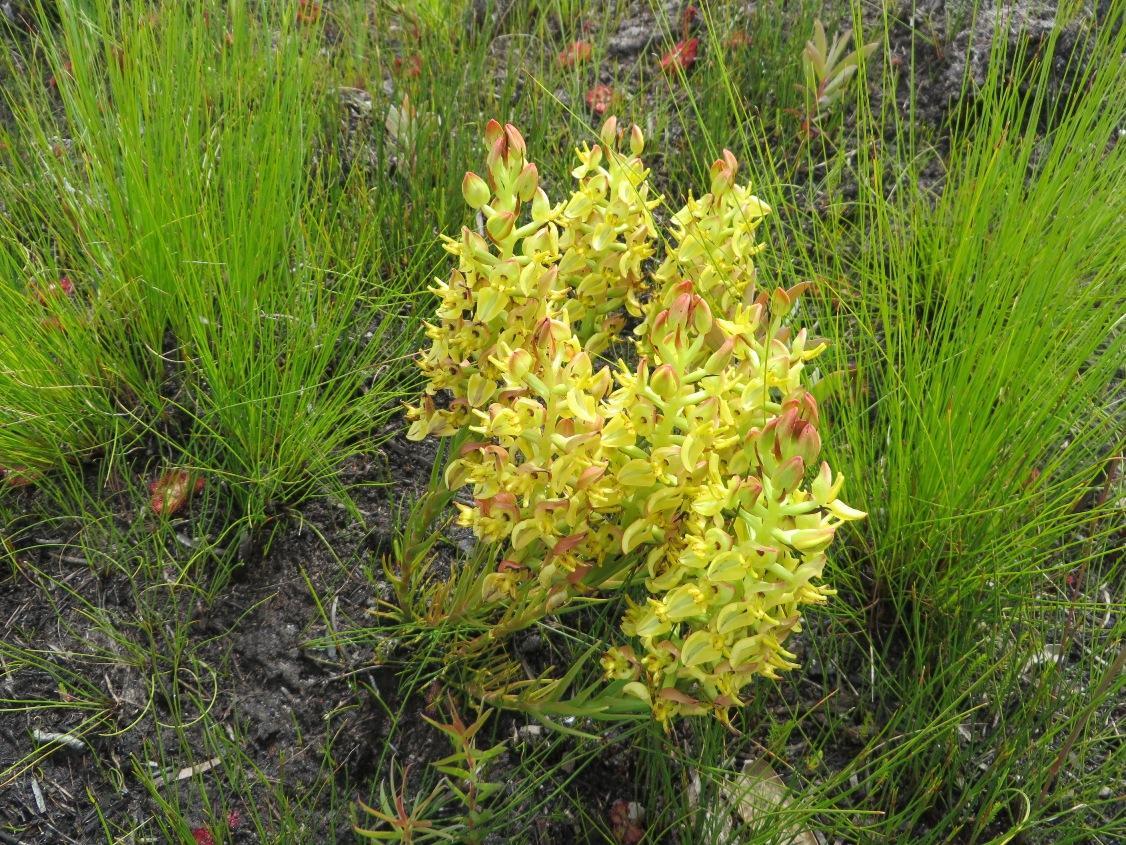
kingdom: Plantae
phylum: Tracheophyta
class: Liliopsida
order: Asparagales
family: Orchidaceae
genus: Ceratandra
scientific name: Ceratandra atrata
